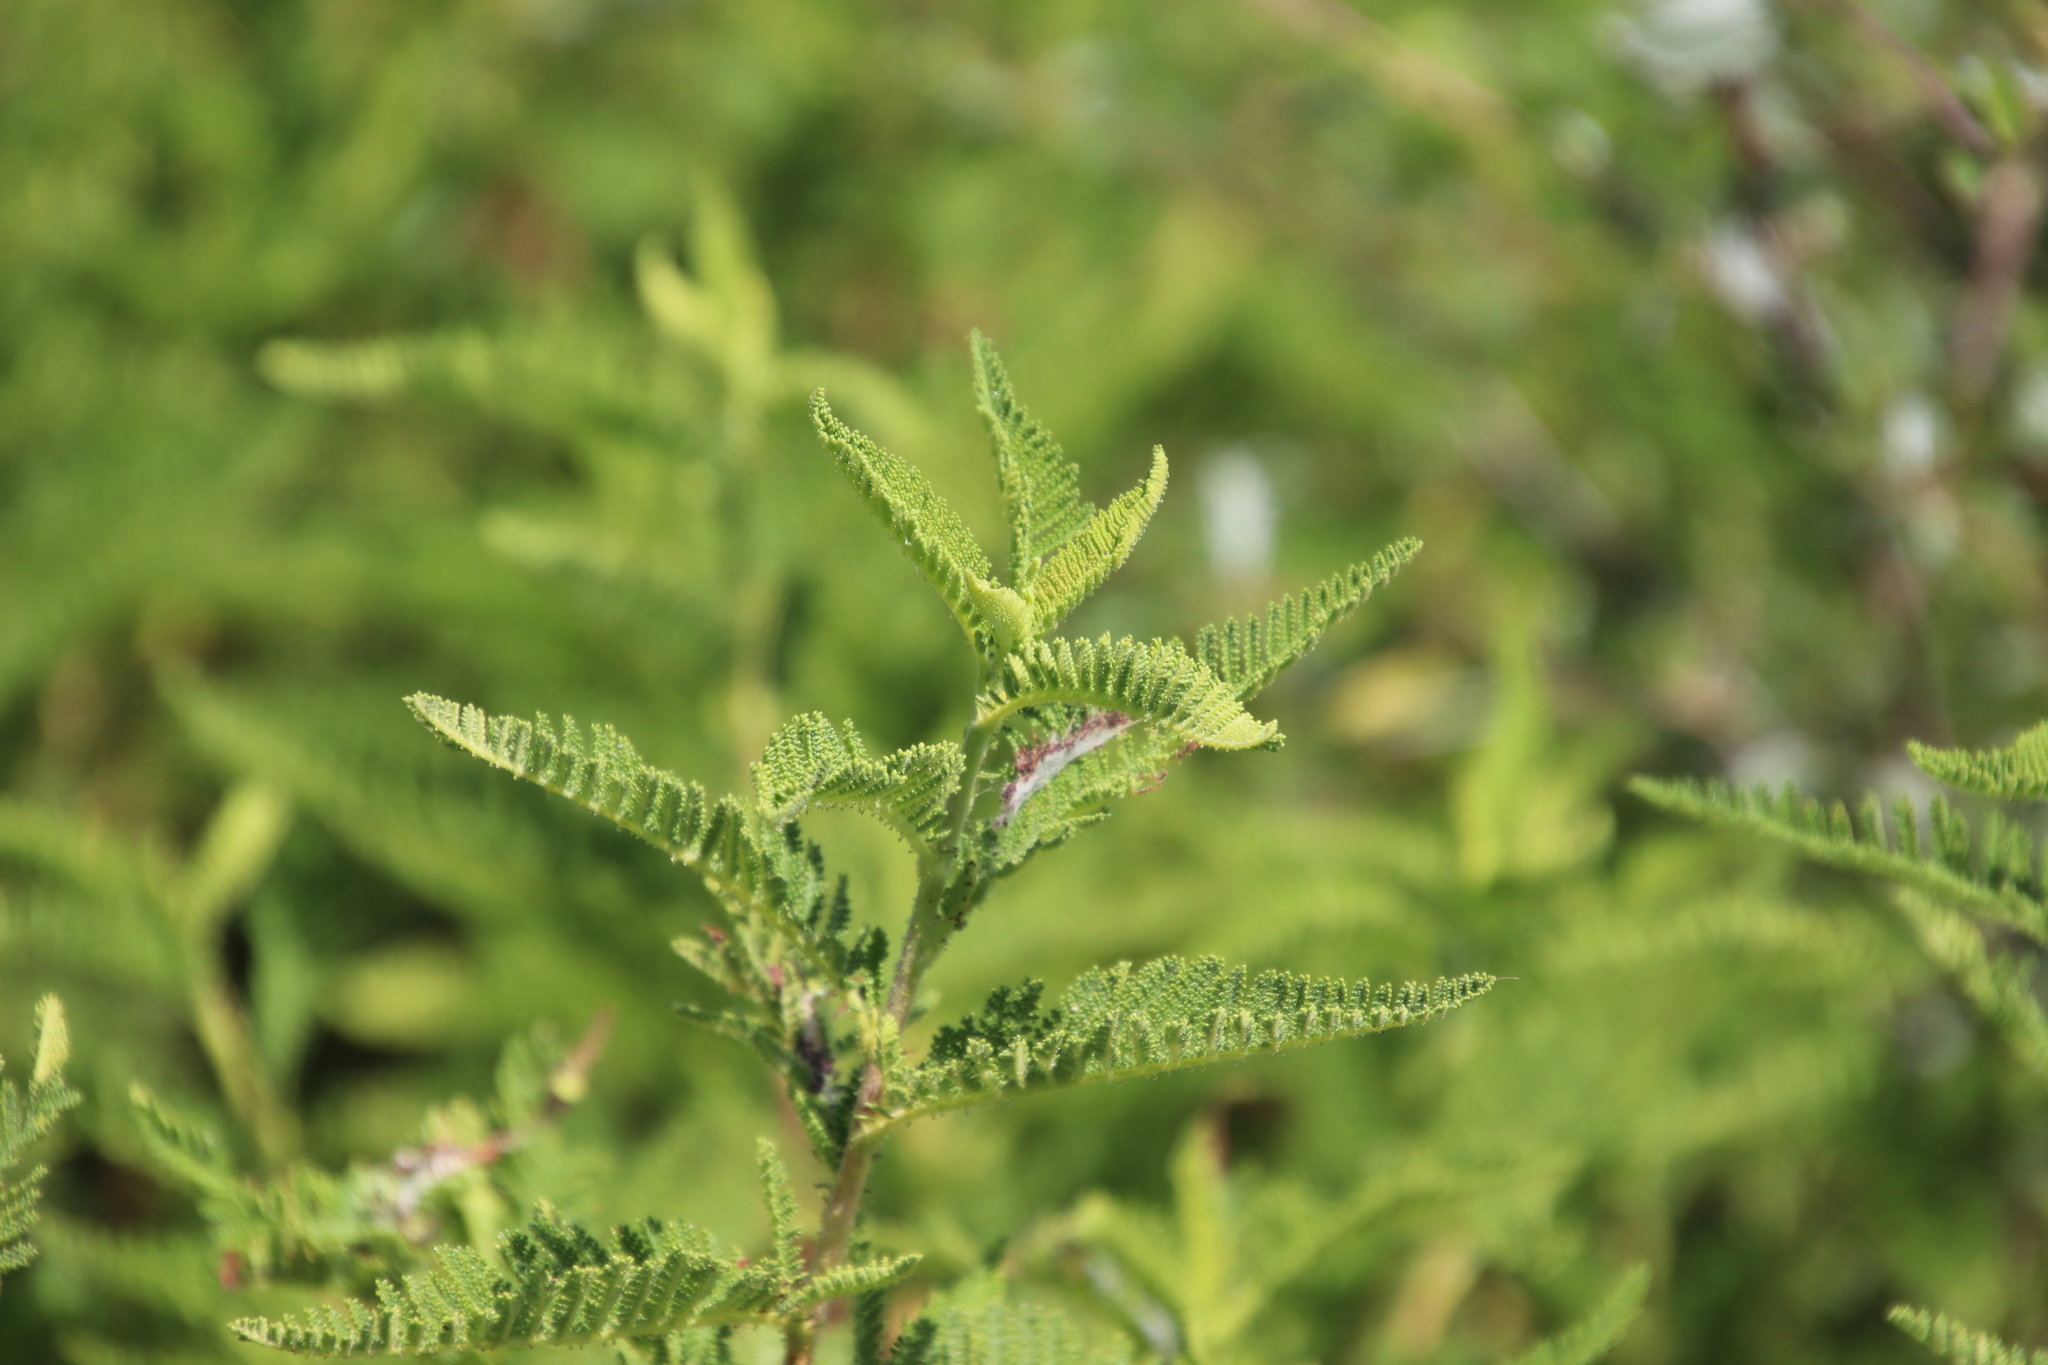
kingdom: Plantae
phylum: Tracheophyta
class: Magnoliopsida
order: Rosales
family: Rosaceae
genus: Chamaebatia
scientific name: Chamaebatia australis
